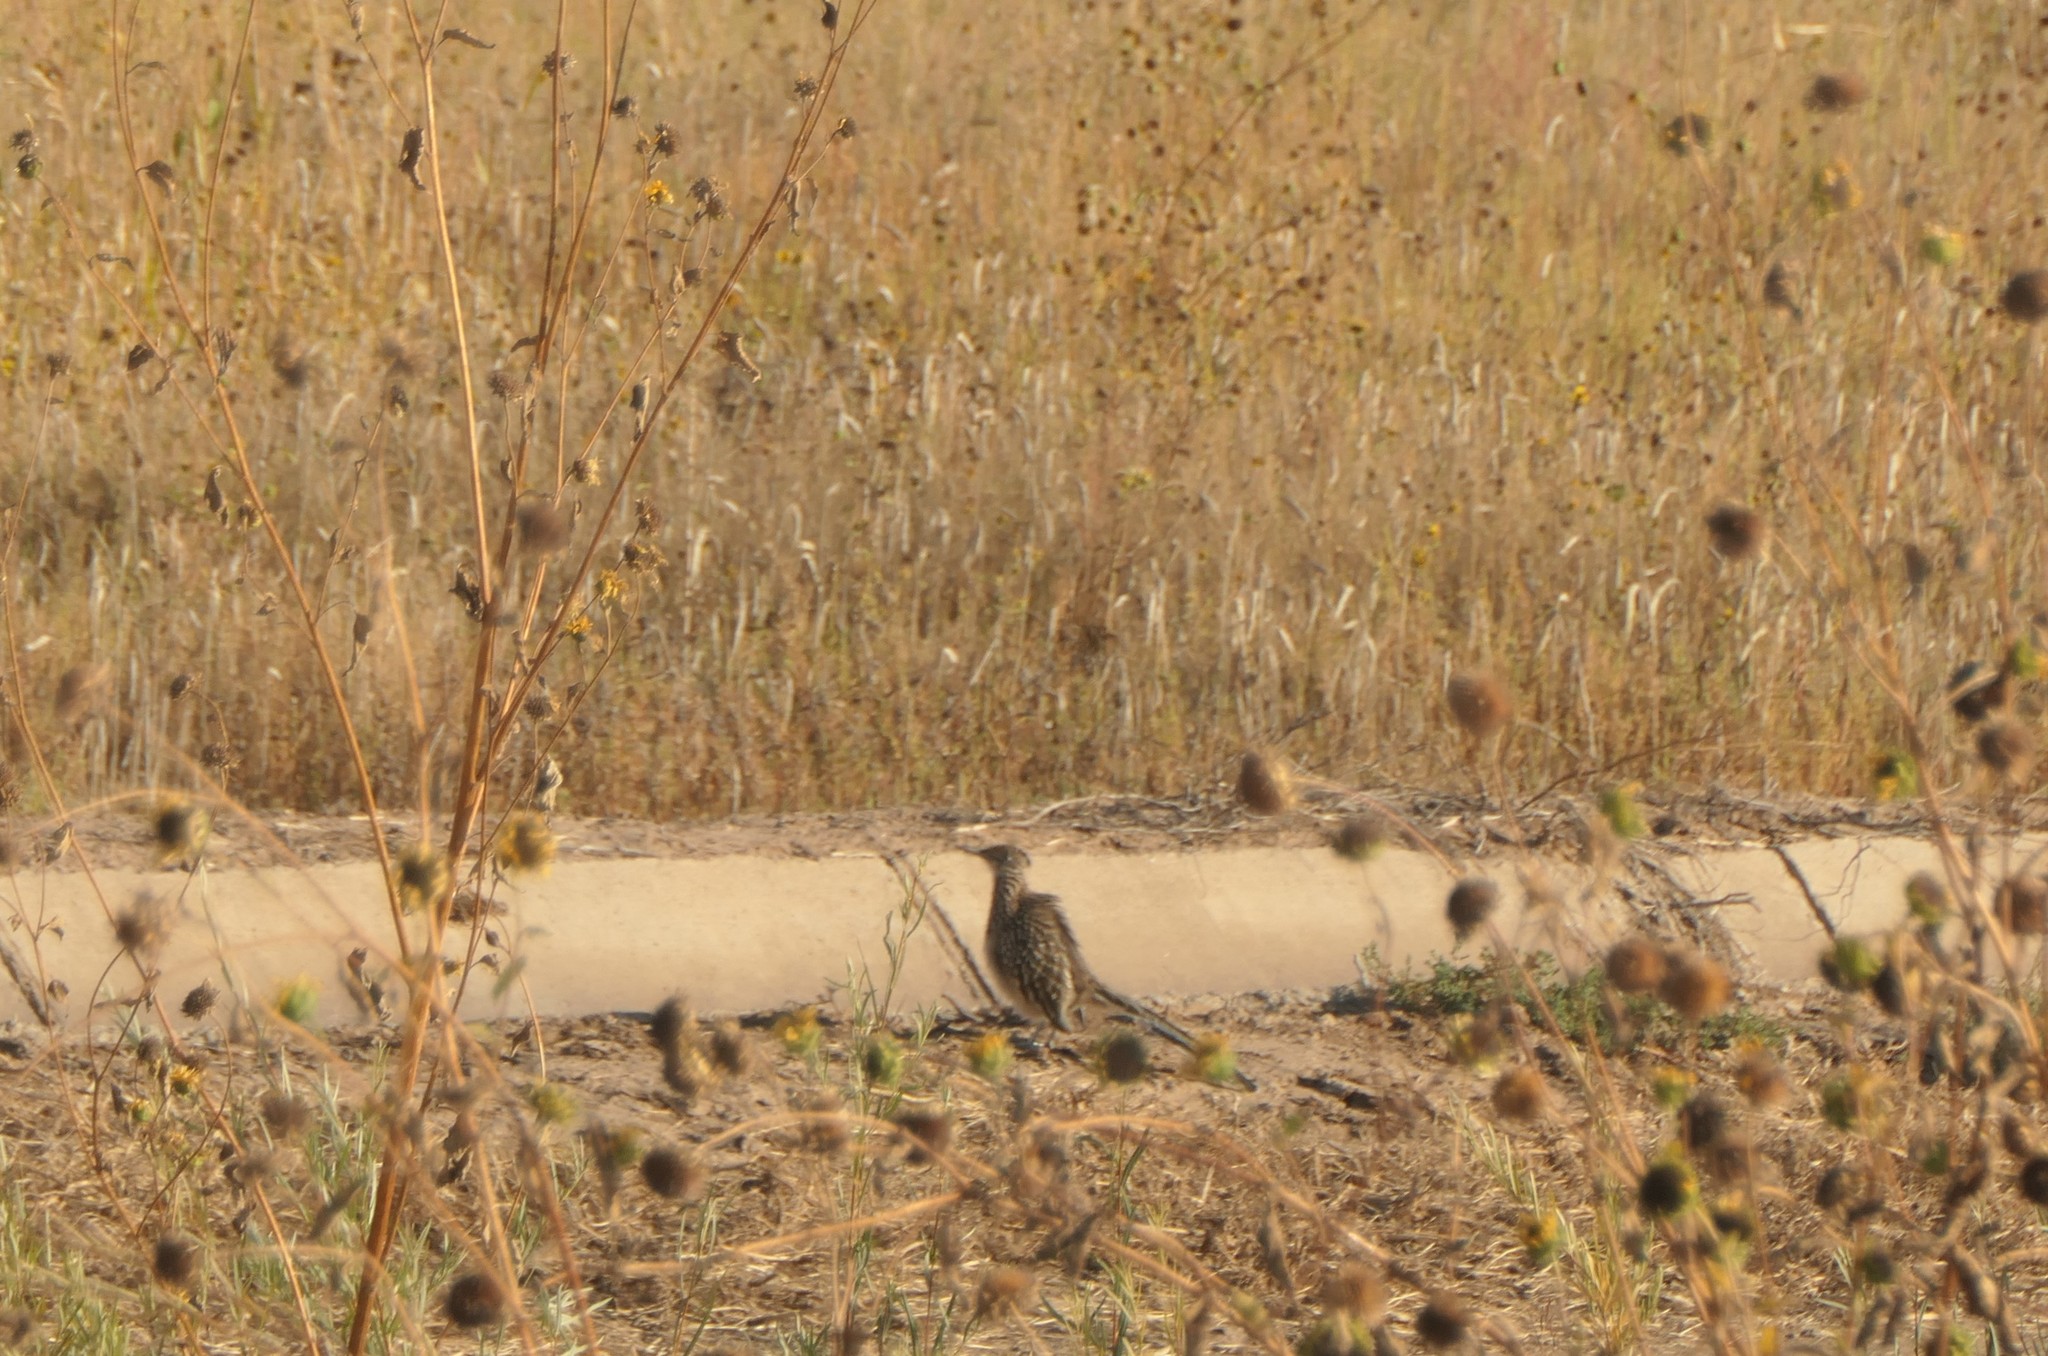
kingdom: Animalia
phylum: Chordata
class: Aves
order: Cuculiformes
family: Cuculidae
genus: Geococcyx
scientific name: Geococcyx californianus
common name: Greater roadrunner
